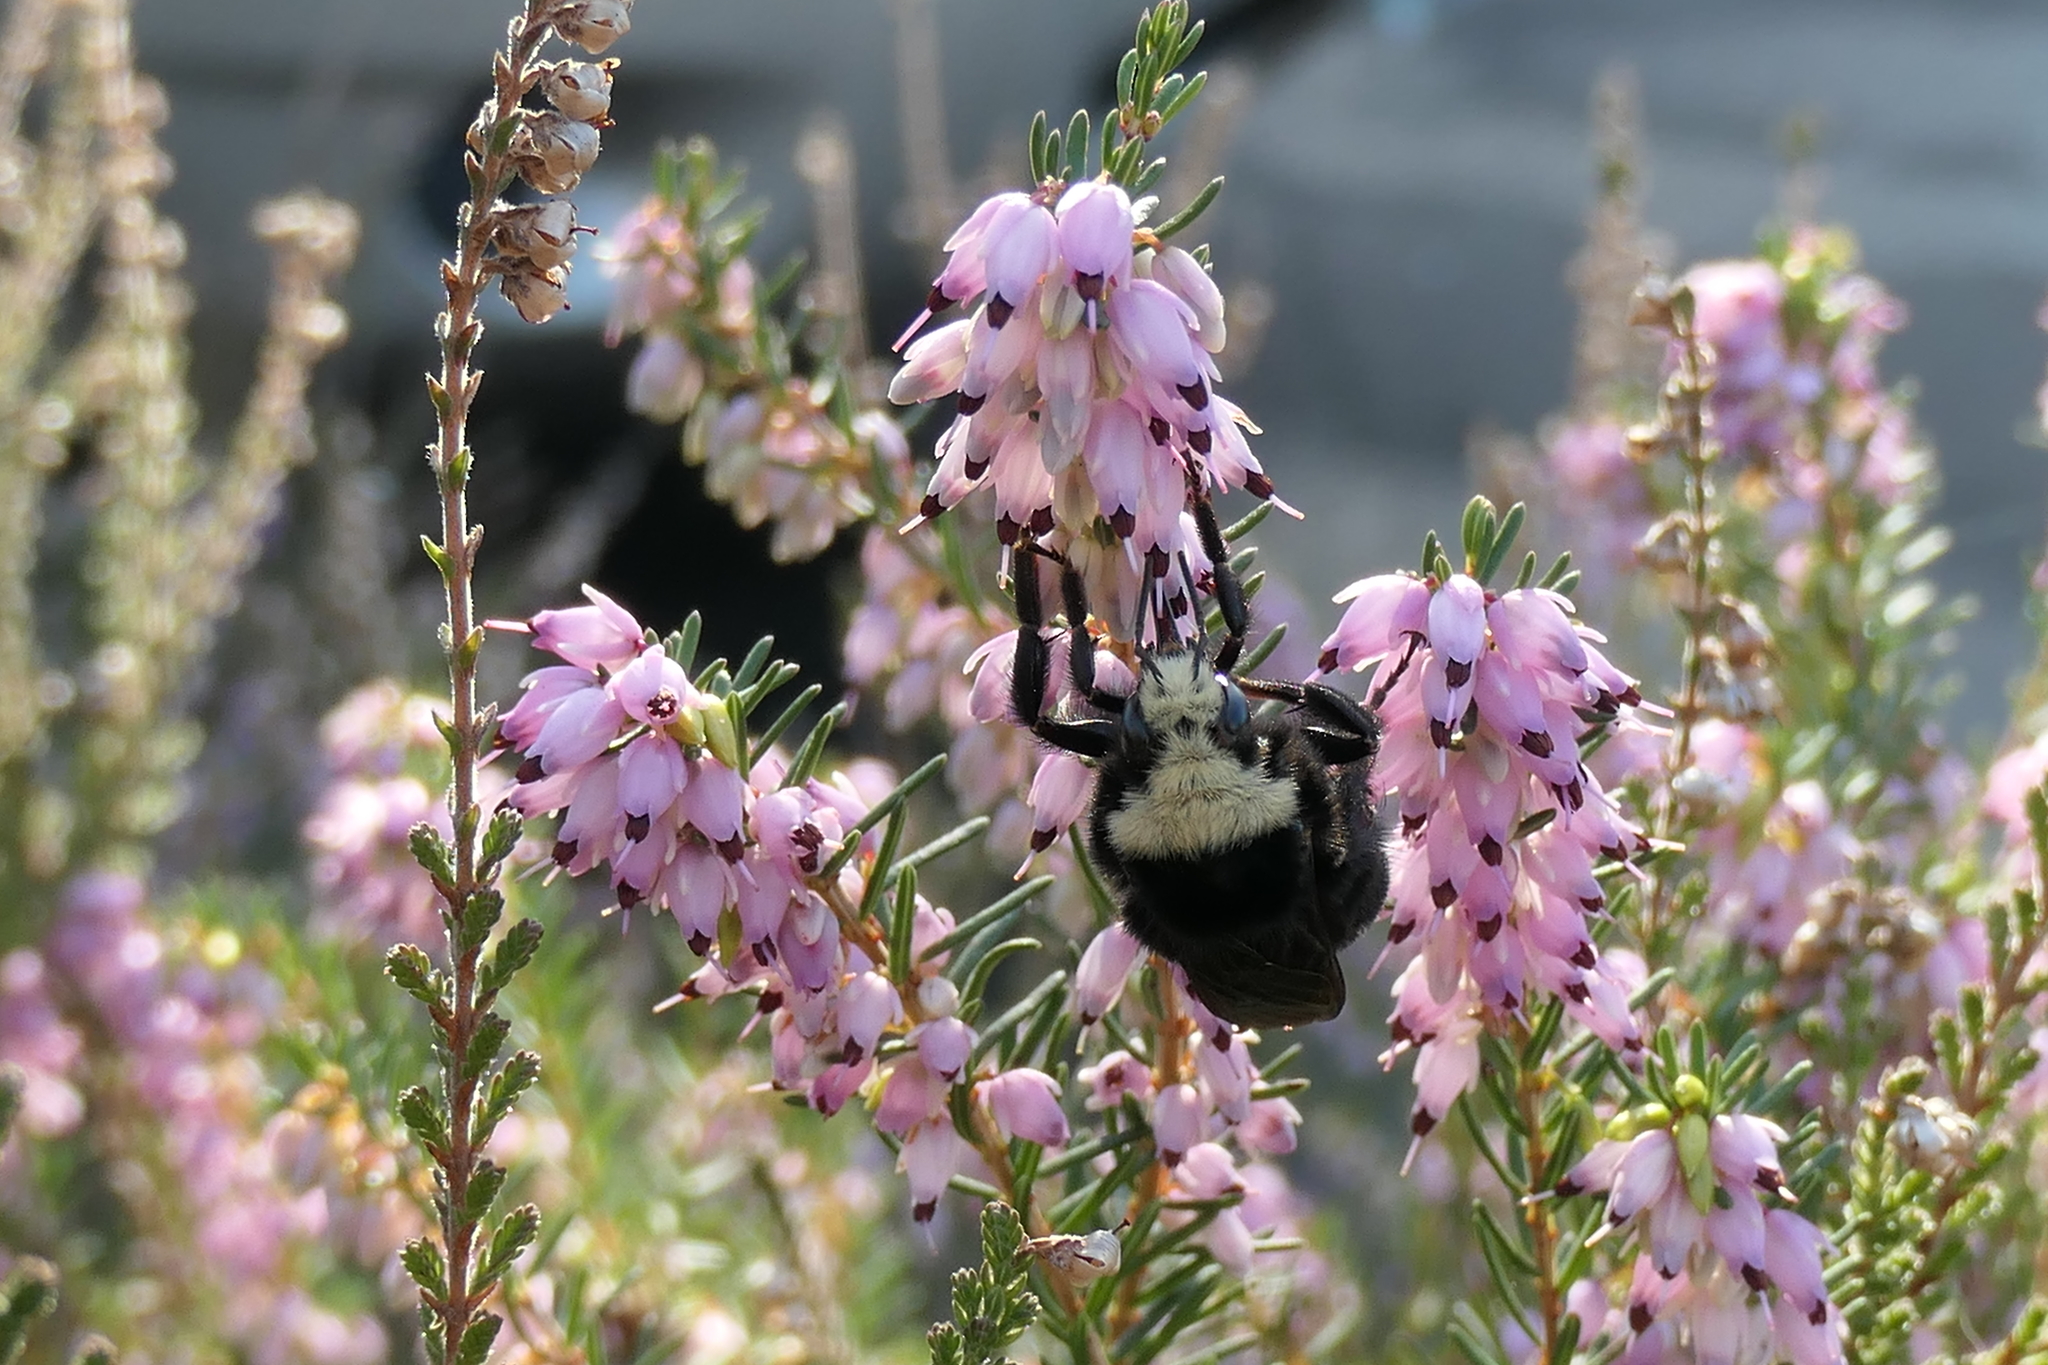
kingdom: Animalia
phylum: Arthropoda
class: Insecta
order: Hymenoptera
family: Apidae
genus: Bombus
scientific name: Bombus vosnesenskii
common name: Vosnesensky bumble bee
